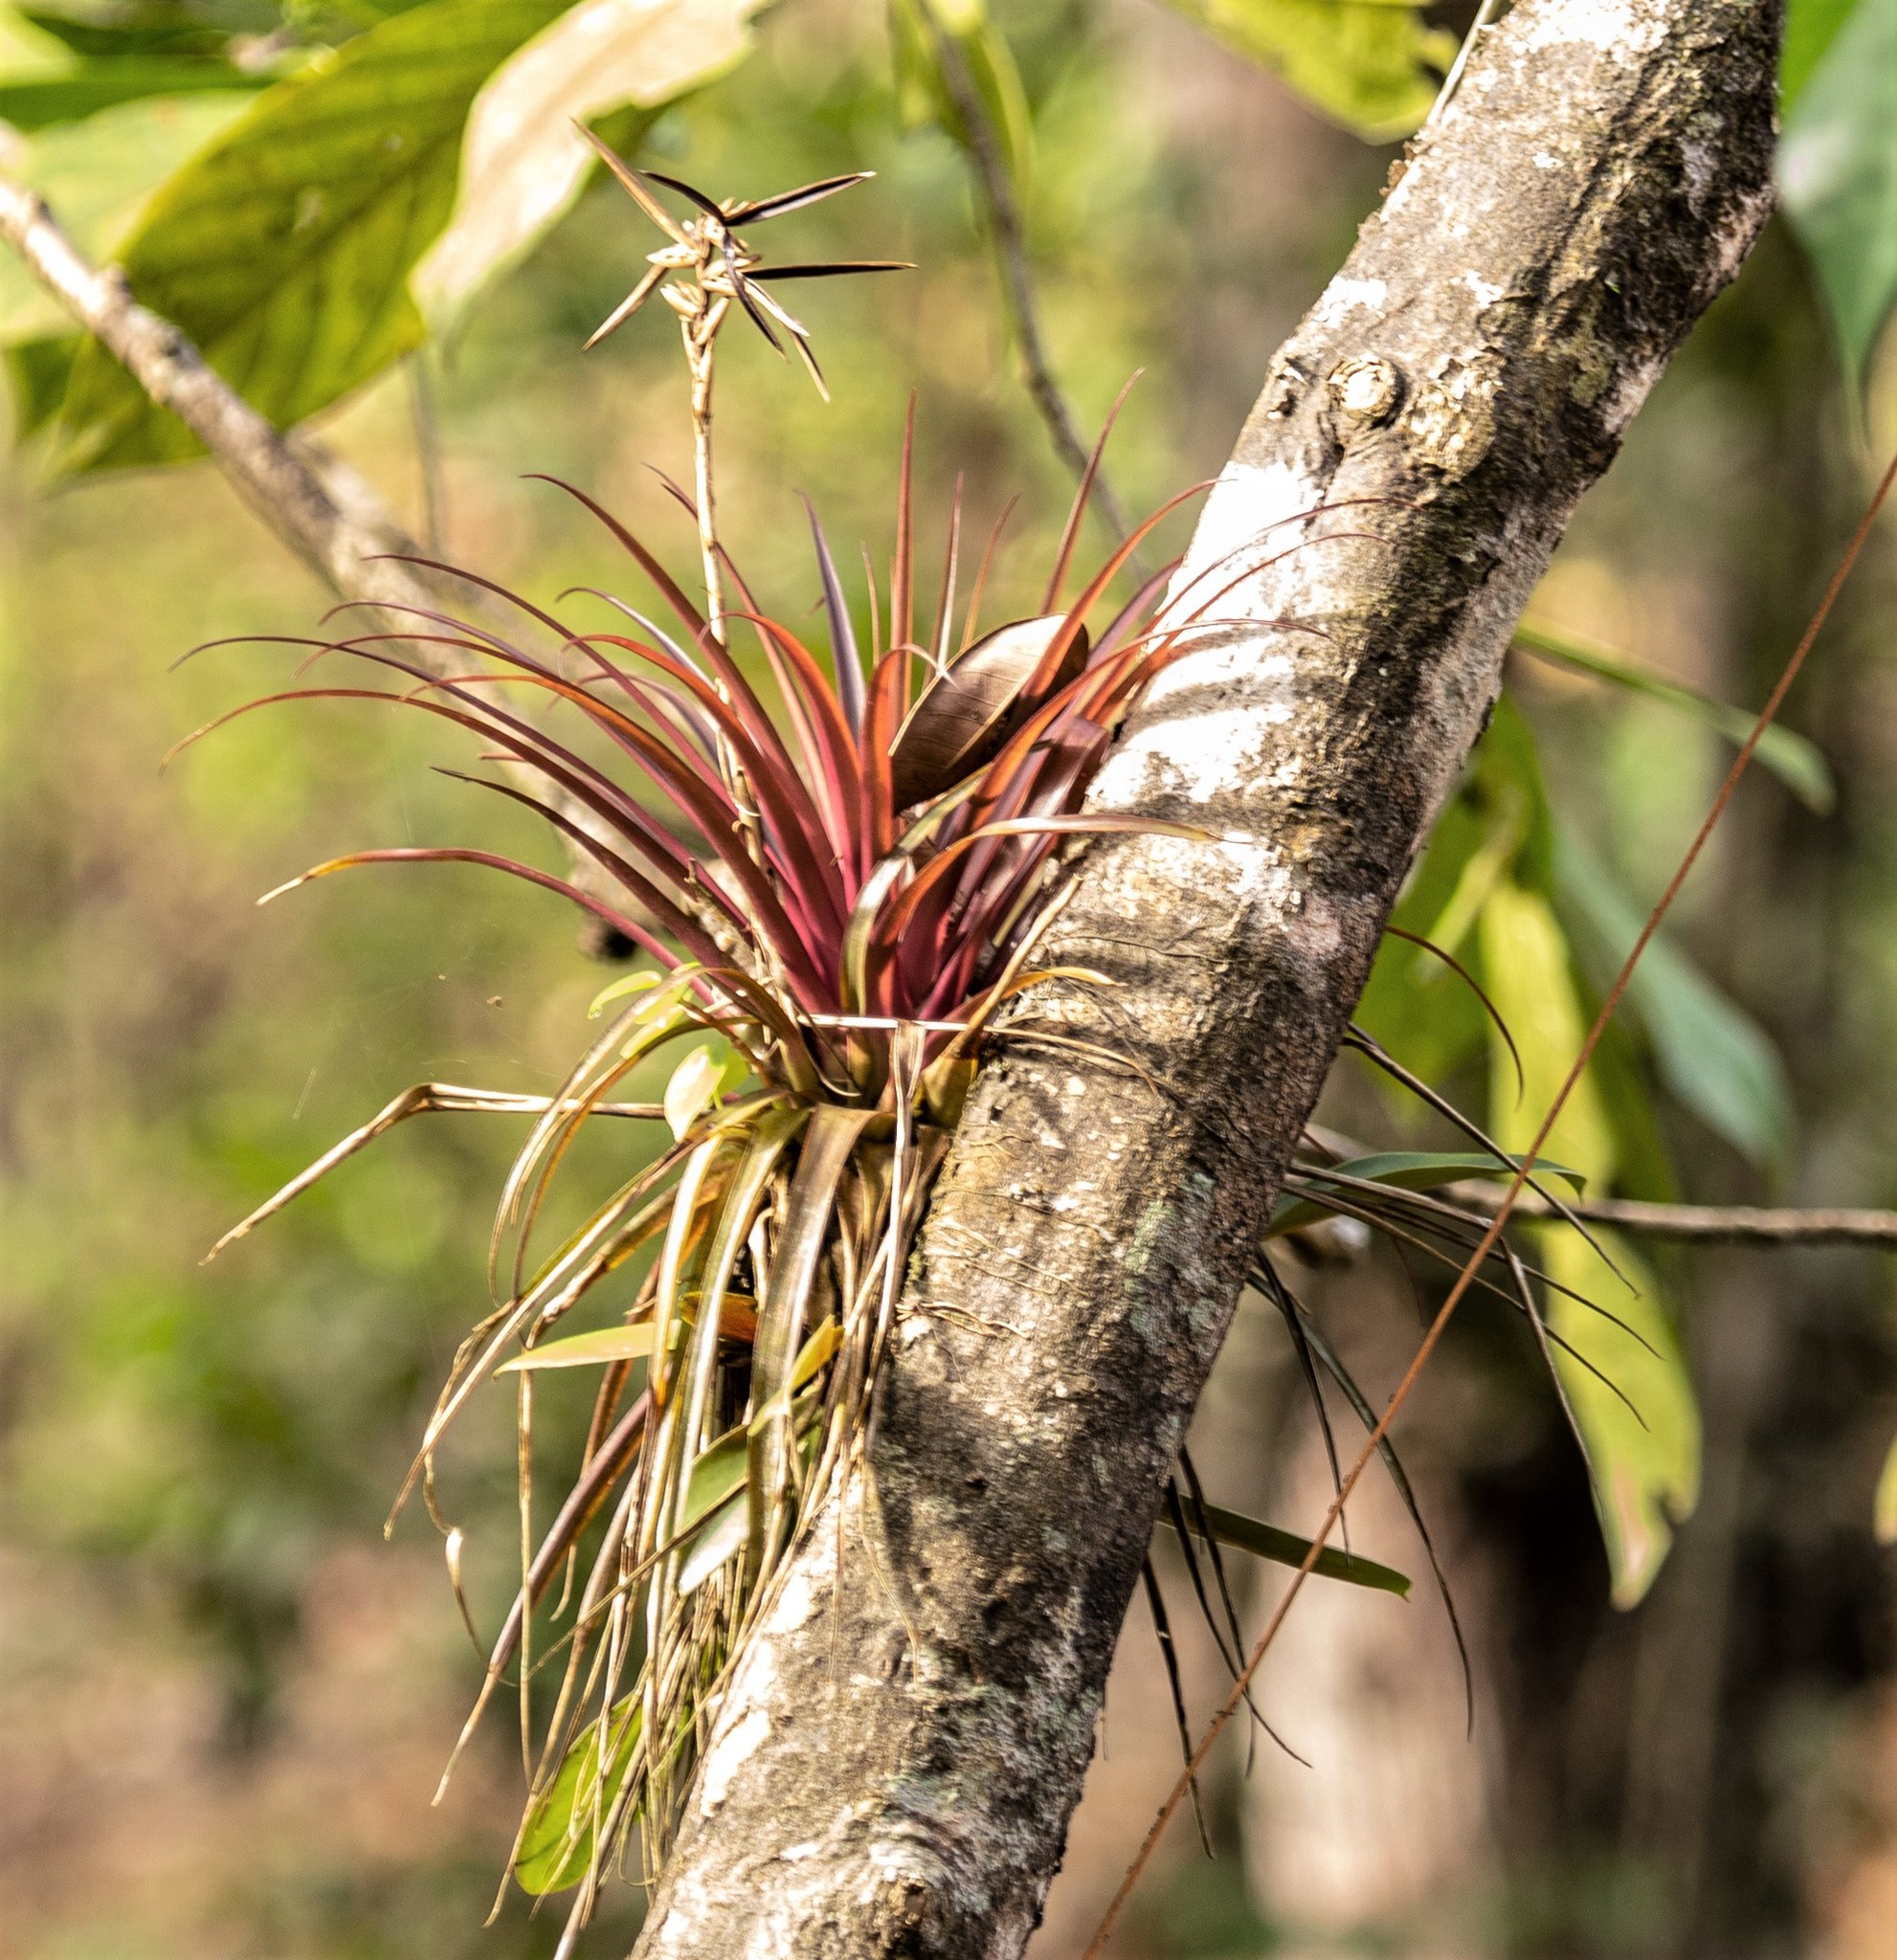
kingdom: Plantae
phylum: Tracheophyta
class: Liliopsida
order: Poales
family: Bromeliaceae
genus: Lemeltonia
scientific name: Lemeltonia monadelpha
